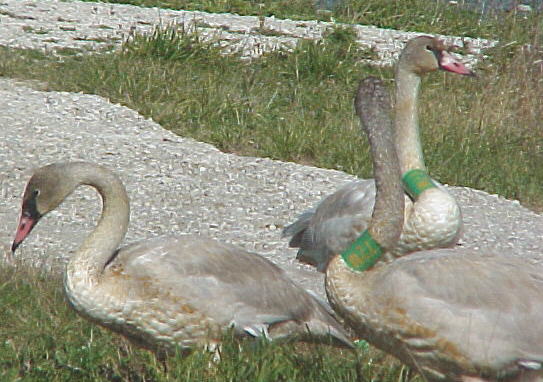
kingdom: Animalia
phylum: Chordata
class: Aves
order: Anseriformes
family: Anatidae
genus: Cygnus
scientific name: Cygnus buccinator
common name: Trumpeter swan
